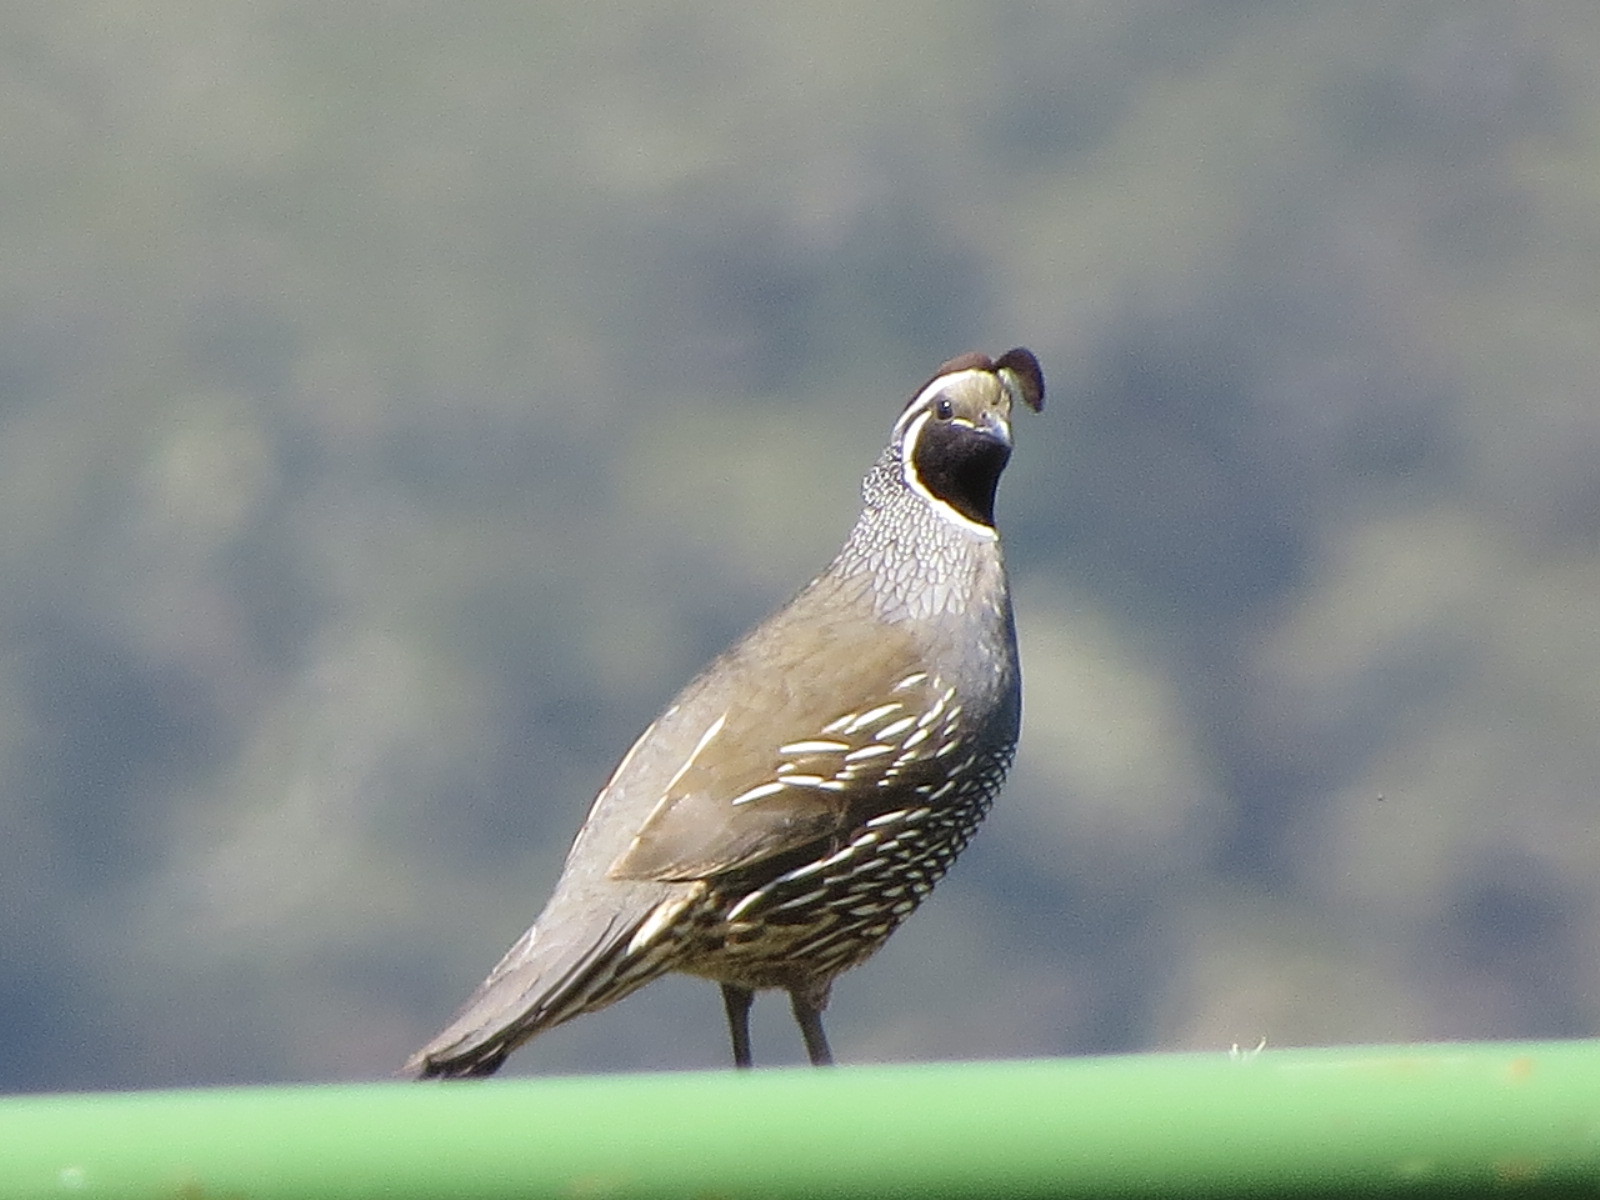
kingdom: Animalia
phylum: Chordata
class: Aves
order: Galliformes
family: Odontophoridae
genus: Callipepla
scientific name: Callipepla californica
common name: California quail
